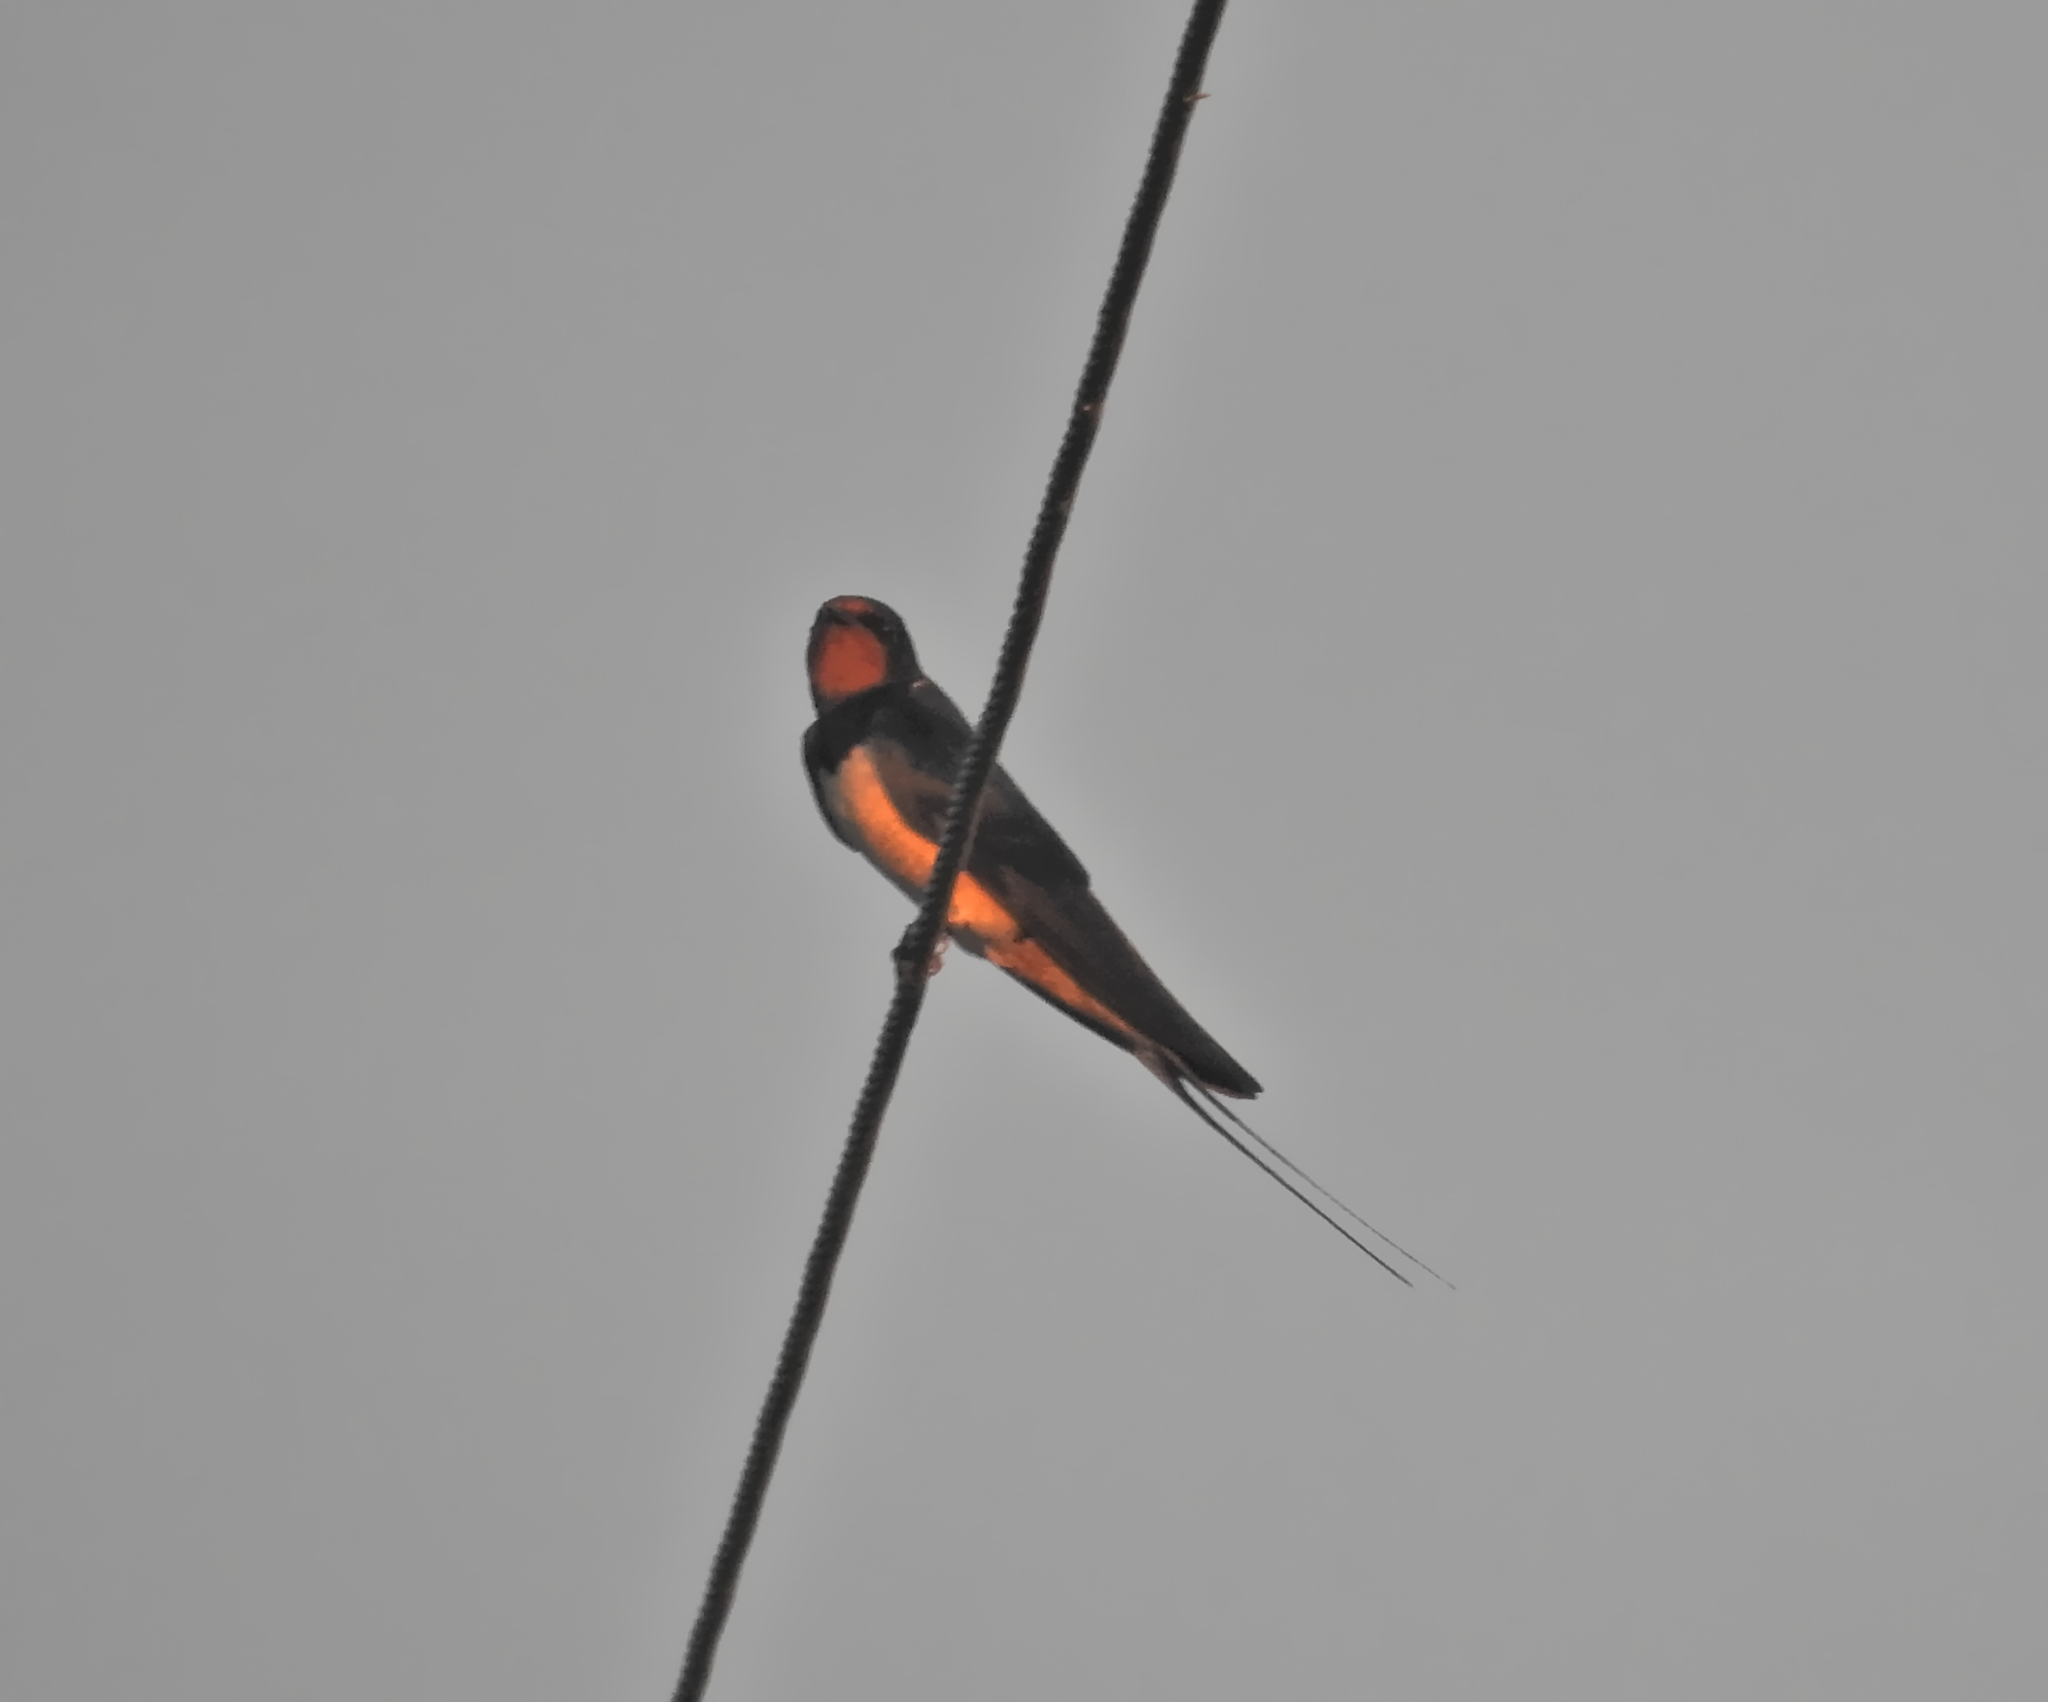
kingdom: Animalia
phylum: Chordata
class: Aves
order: Passeriformes
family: Hirundinidae
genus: Hirundo
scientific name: Hirundo rustica
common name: Barn swallow
